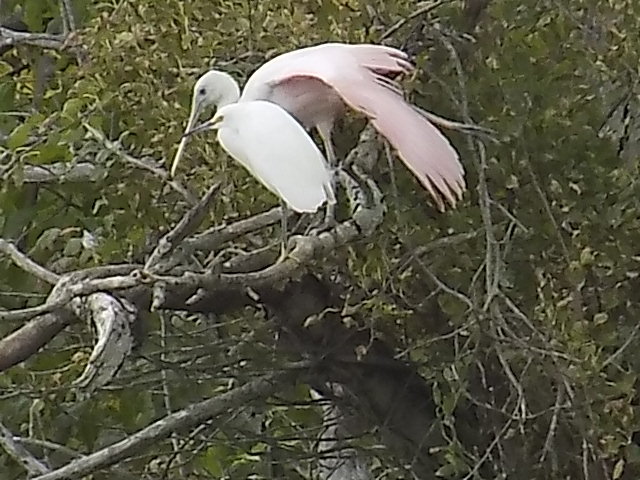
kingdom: Animalia
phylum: Chordata
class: Aves
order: Pelecaniformes
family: Threskiornithidae
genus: Platalea
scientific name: Platalea ajaja
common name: Roseate spoonbill
